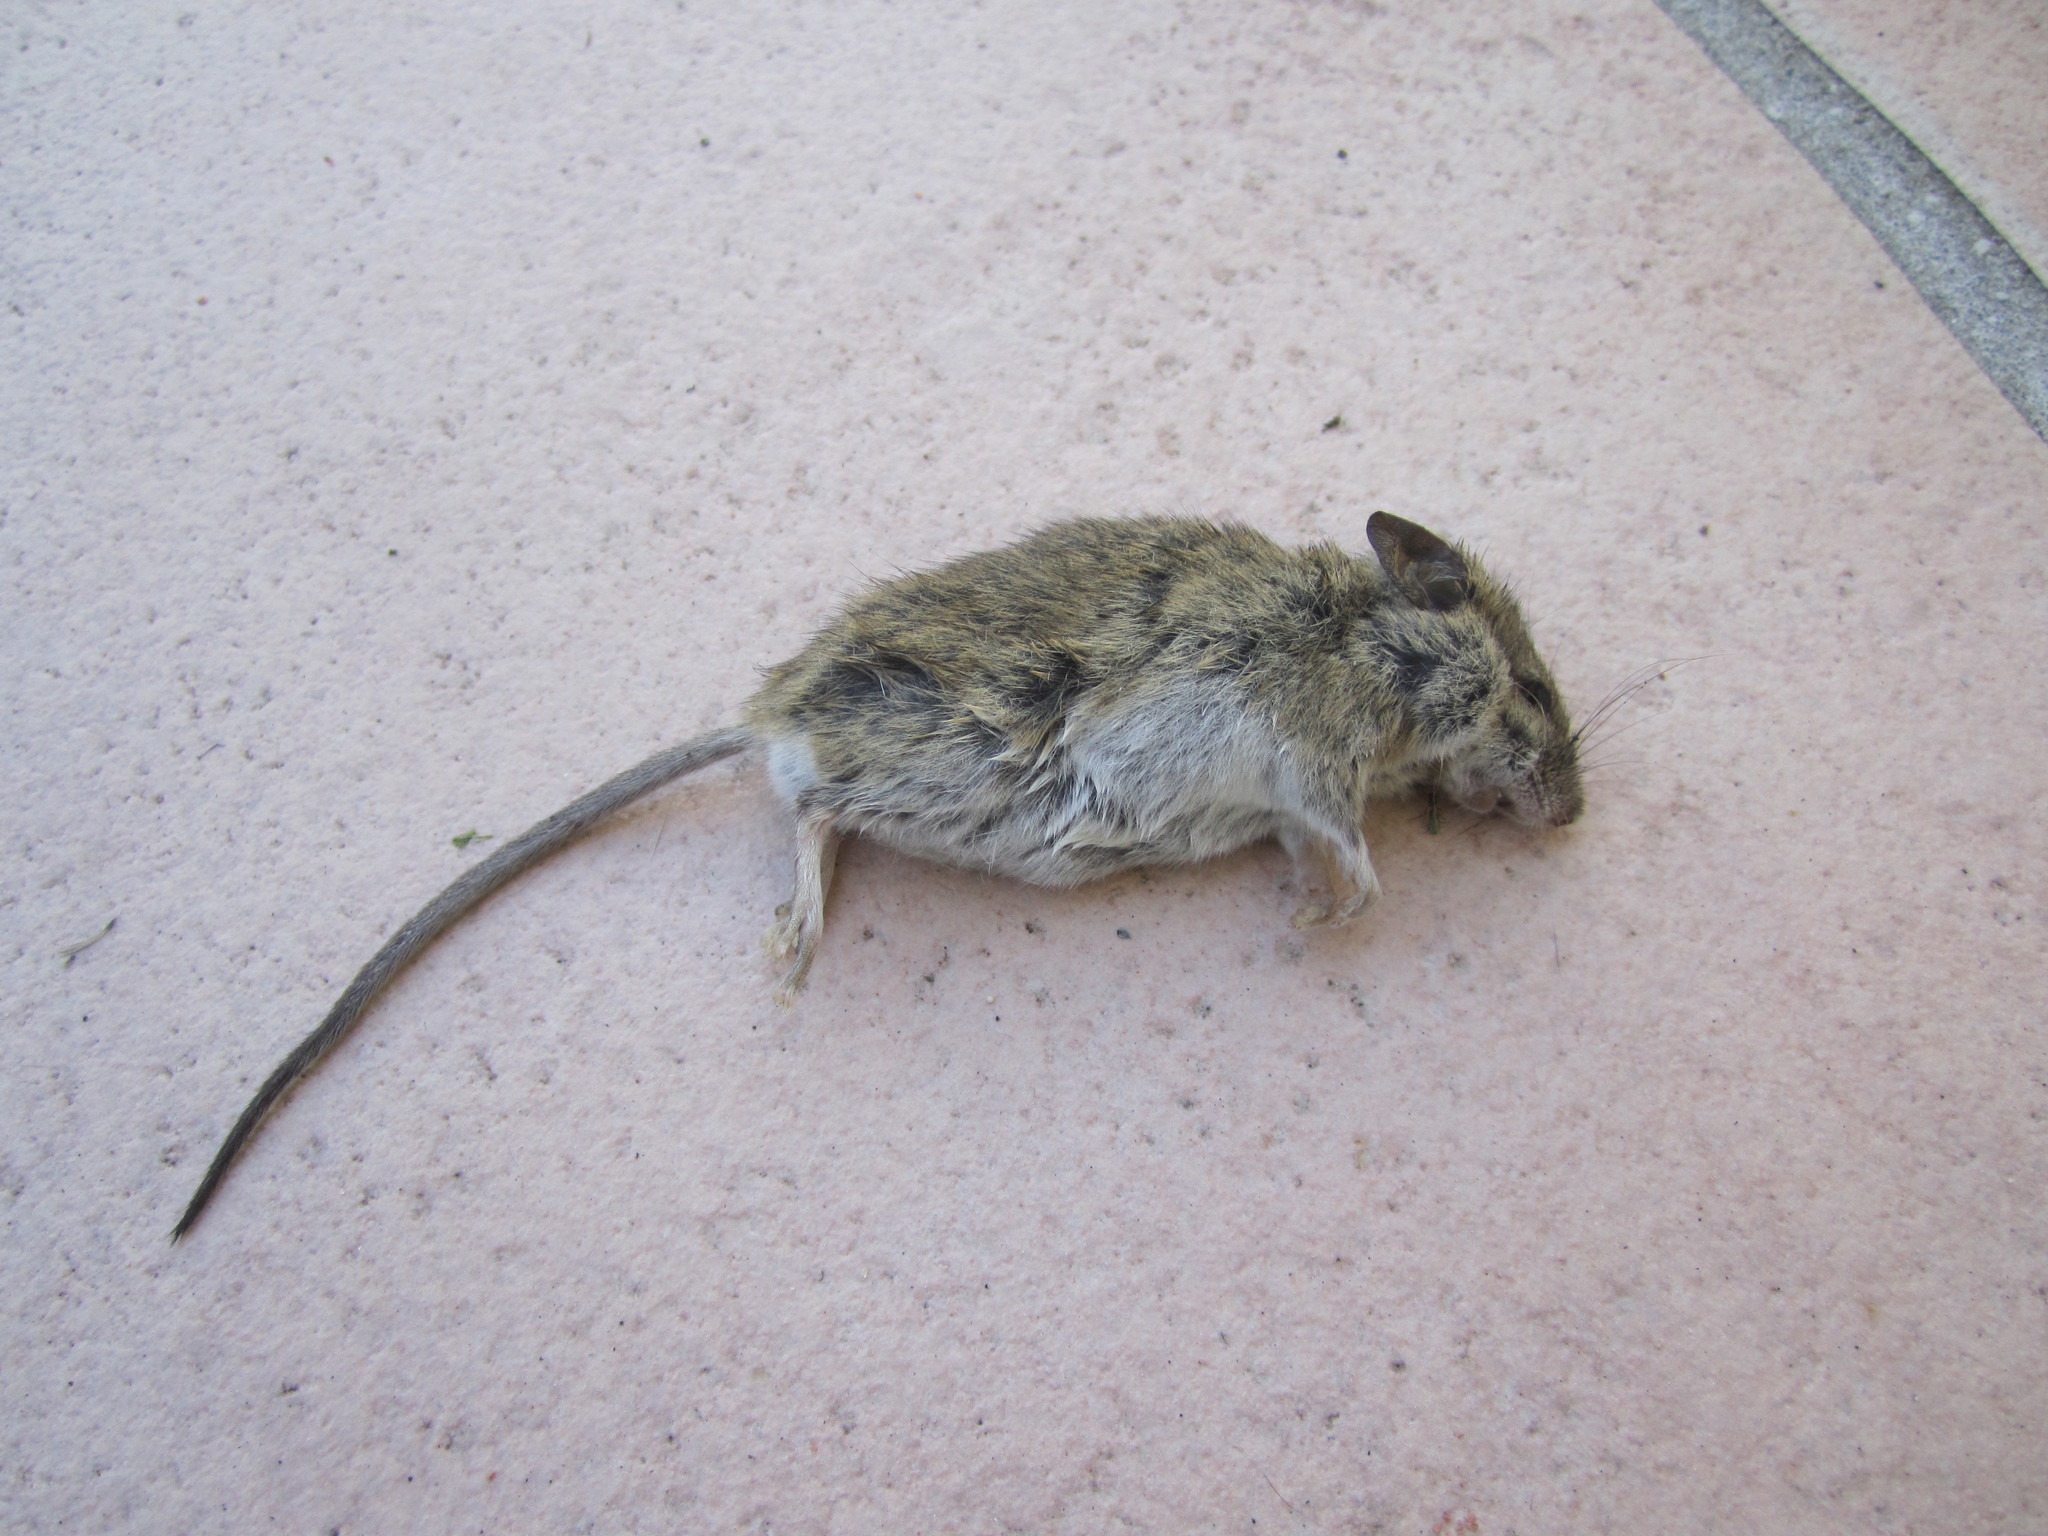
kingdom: Animalia
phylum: Chordata
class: Mammalia
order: Rodentia
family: Muridae
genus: Mus
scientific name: Mus musculus
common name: House mouse
